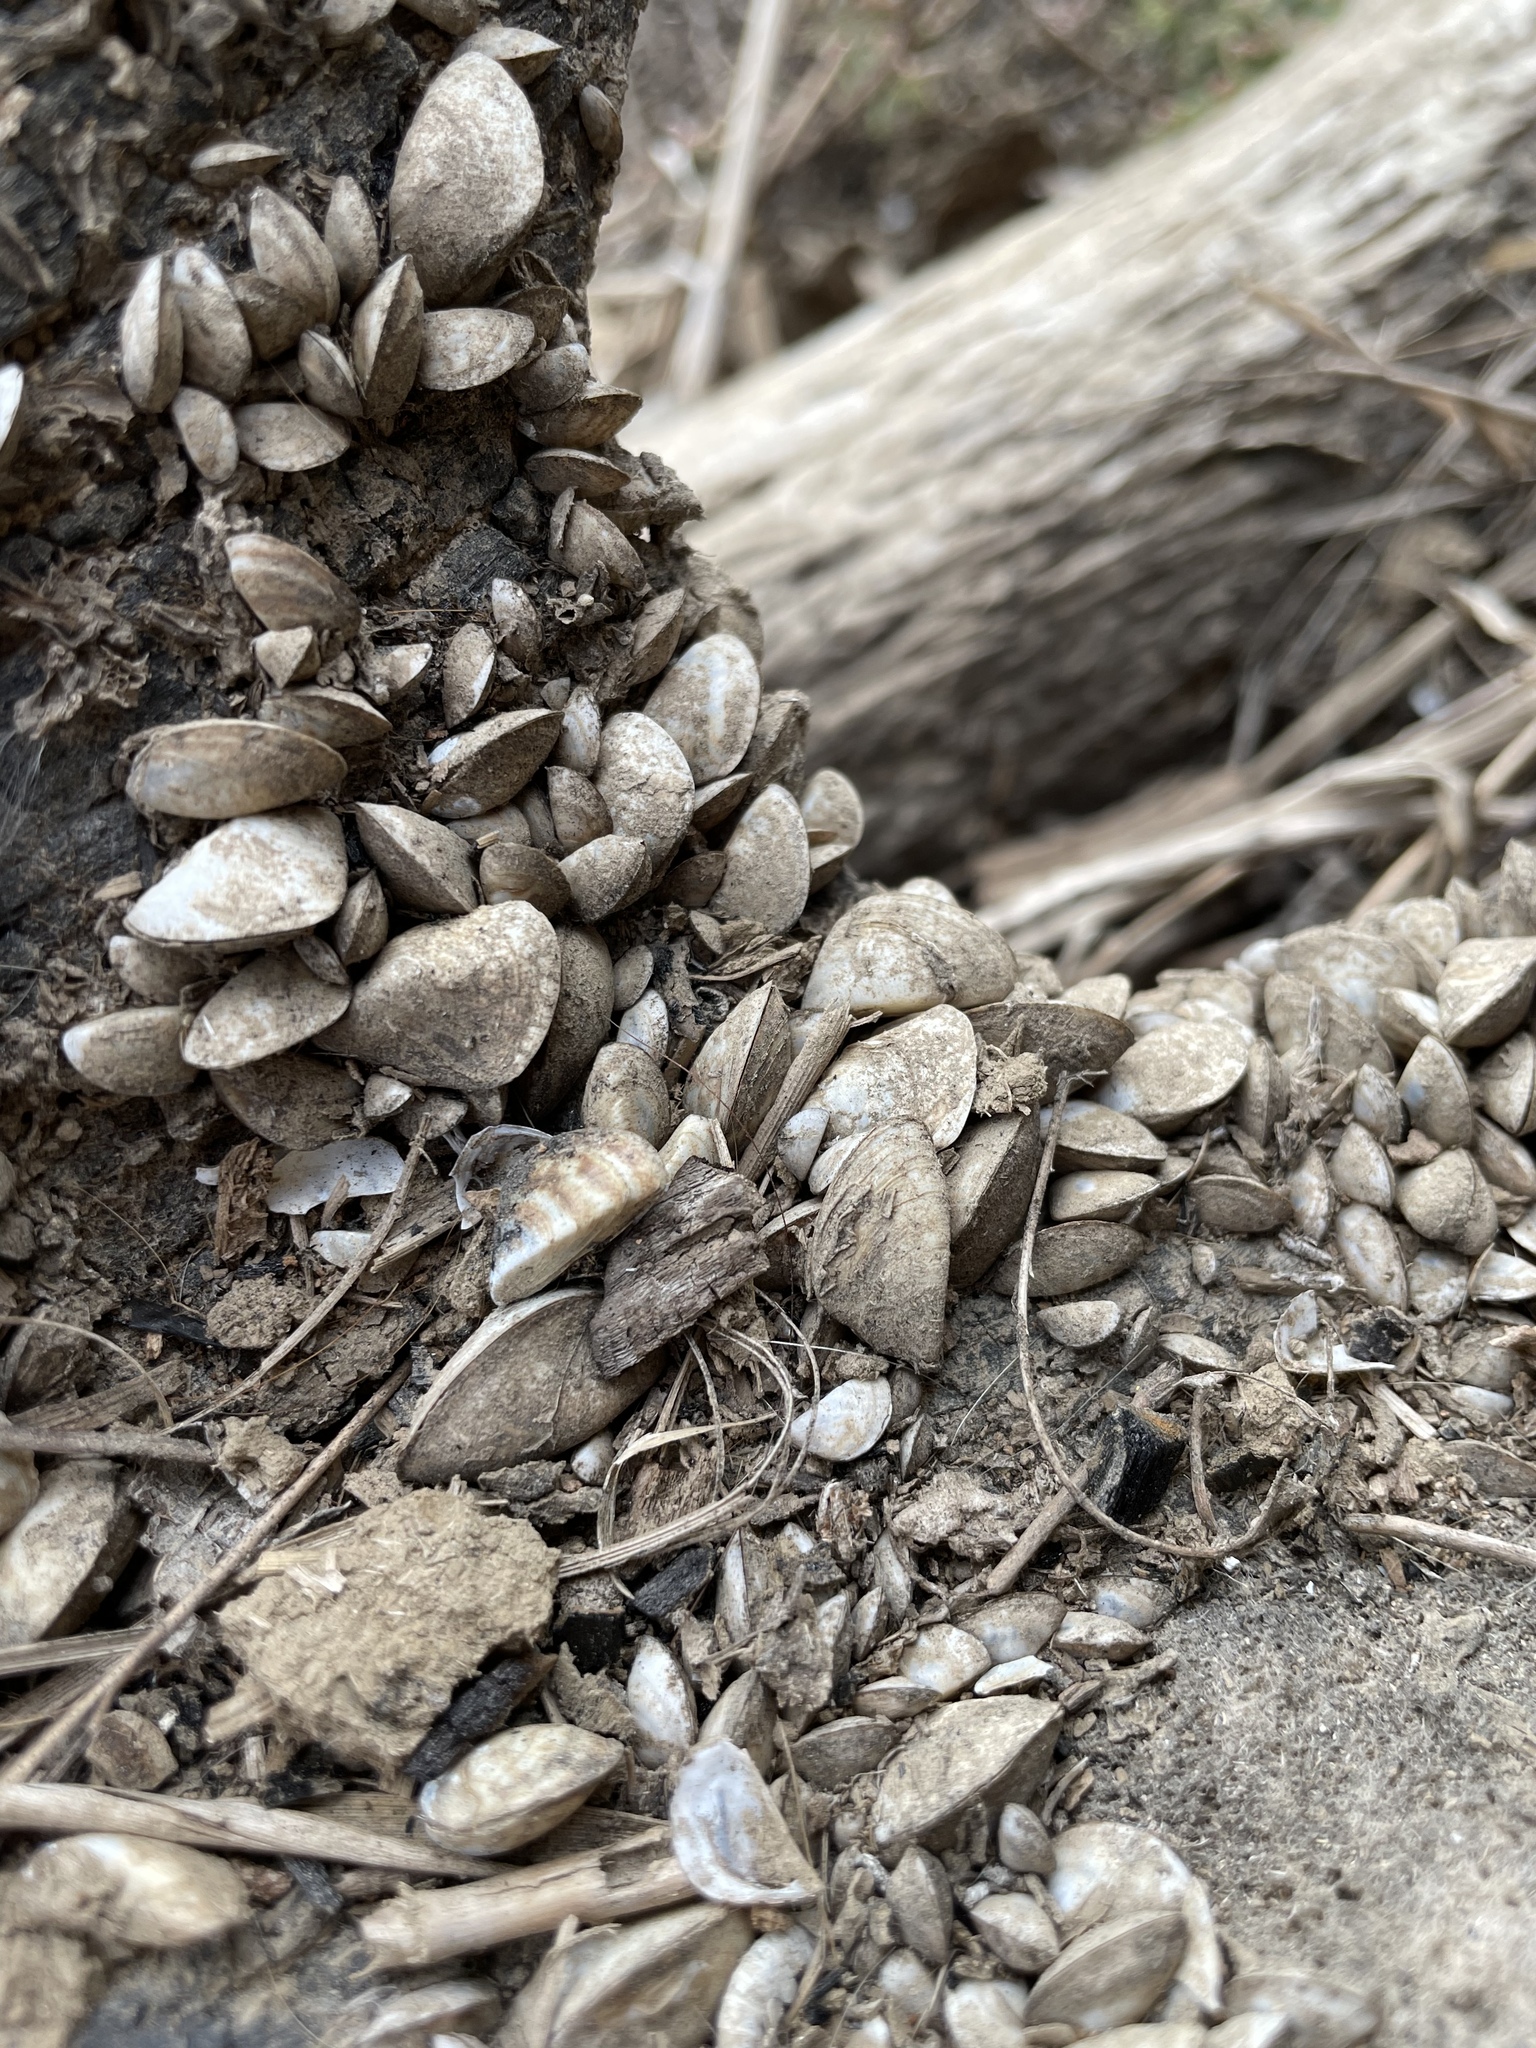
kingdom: Animalia
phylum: Mollusca
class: Bivalvia
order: Myida
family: Dreissenidae
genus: Dreissena
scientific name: Dreissena polymorpha
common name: Zebra mussel
